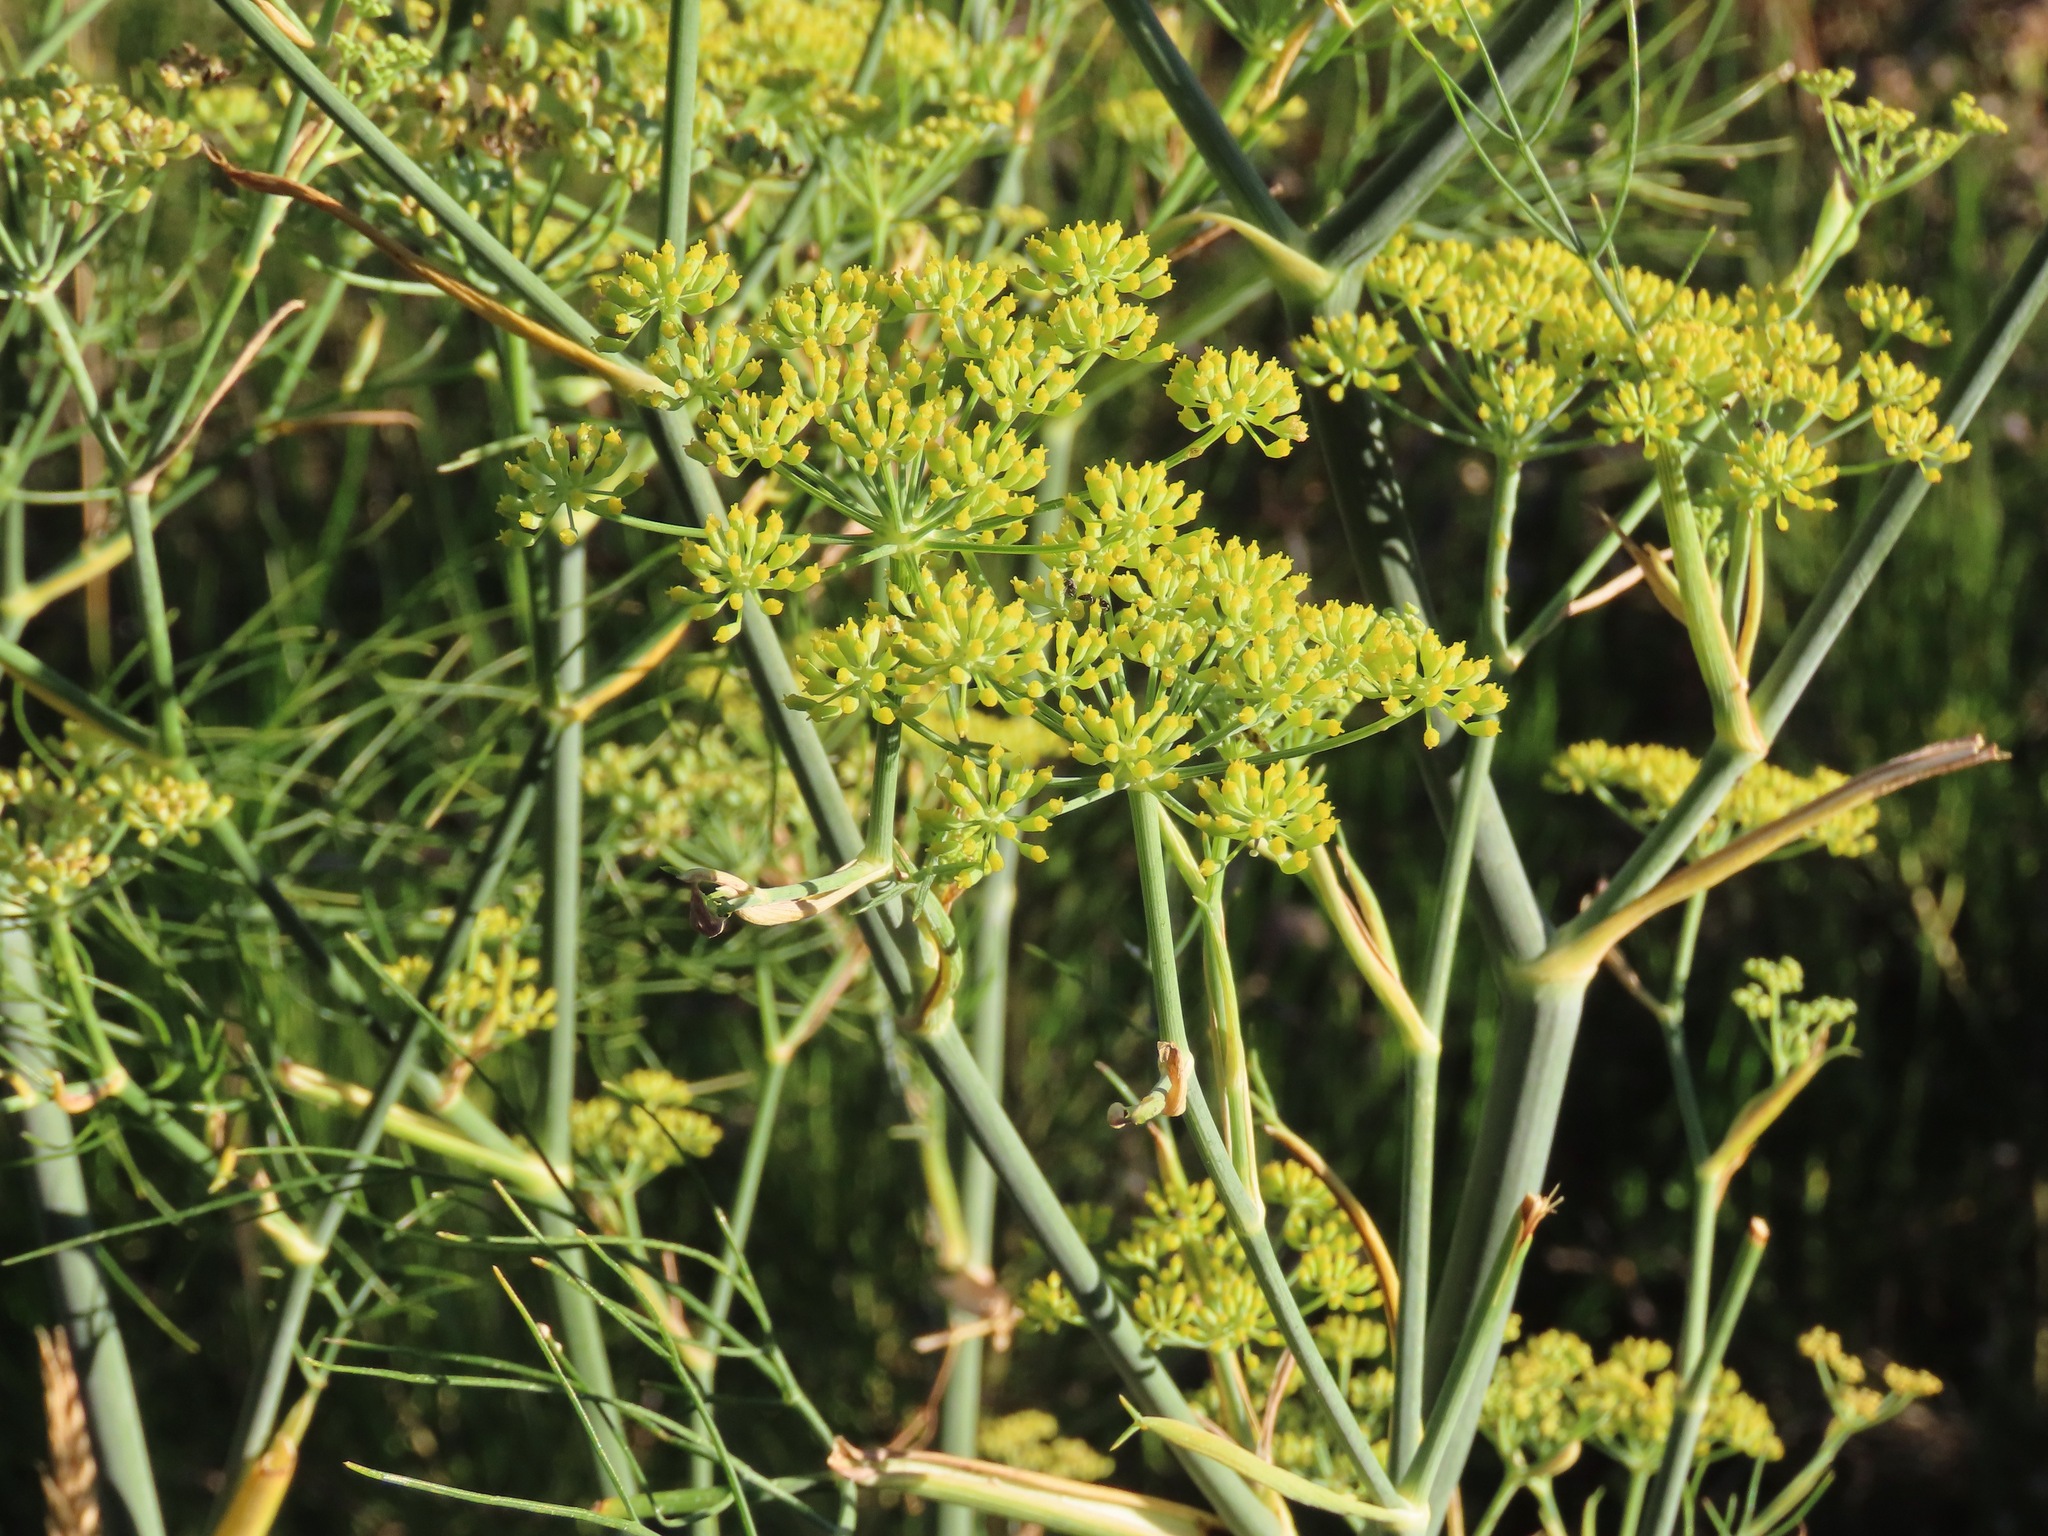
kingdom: Plantae
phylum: Tracheophyta
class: Magnoliopsida
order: Apiales
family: Apiaceae
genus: Foeniculum
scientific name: Foeniculum vulgare
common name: Fennel
